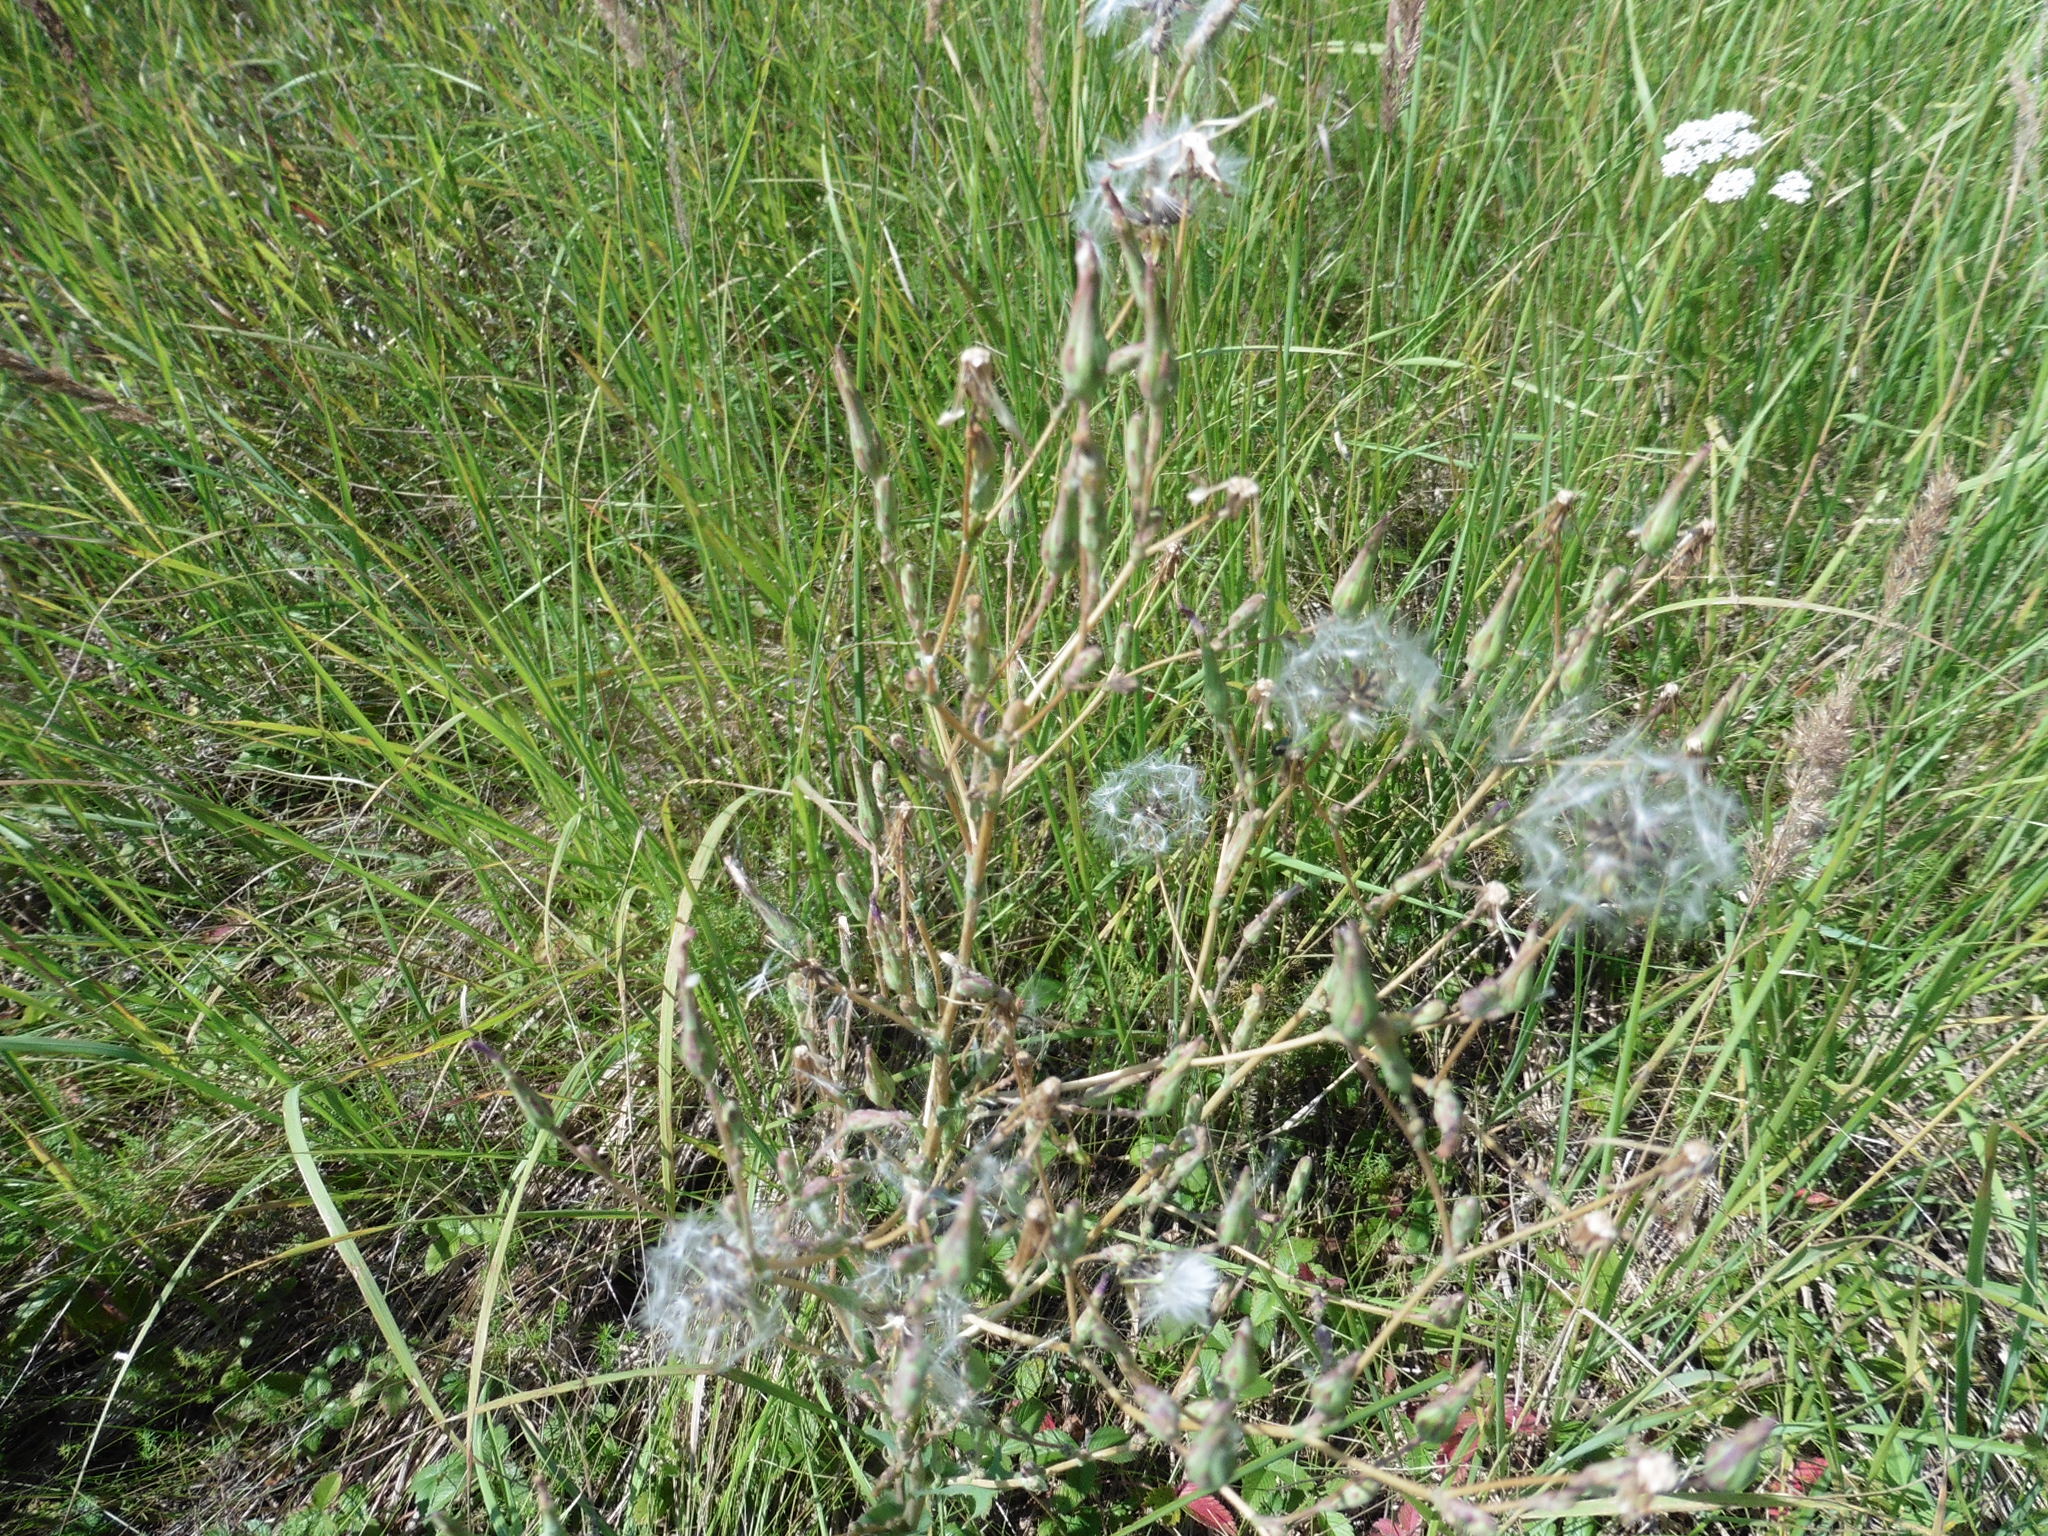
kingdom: Plantae
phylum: Tracheophyta
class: Magnoliopsida
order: Asterales
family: Asteraceae
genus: Lactuca
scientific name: Lactuca serriola
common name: Prickly lettuce
